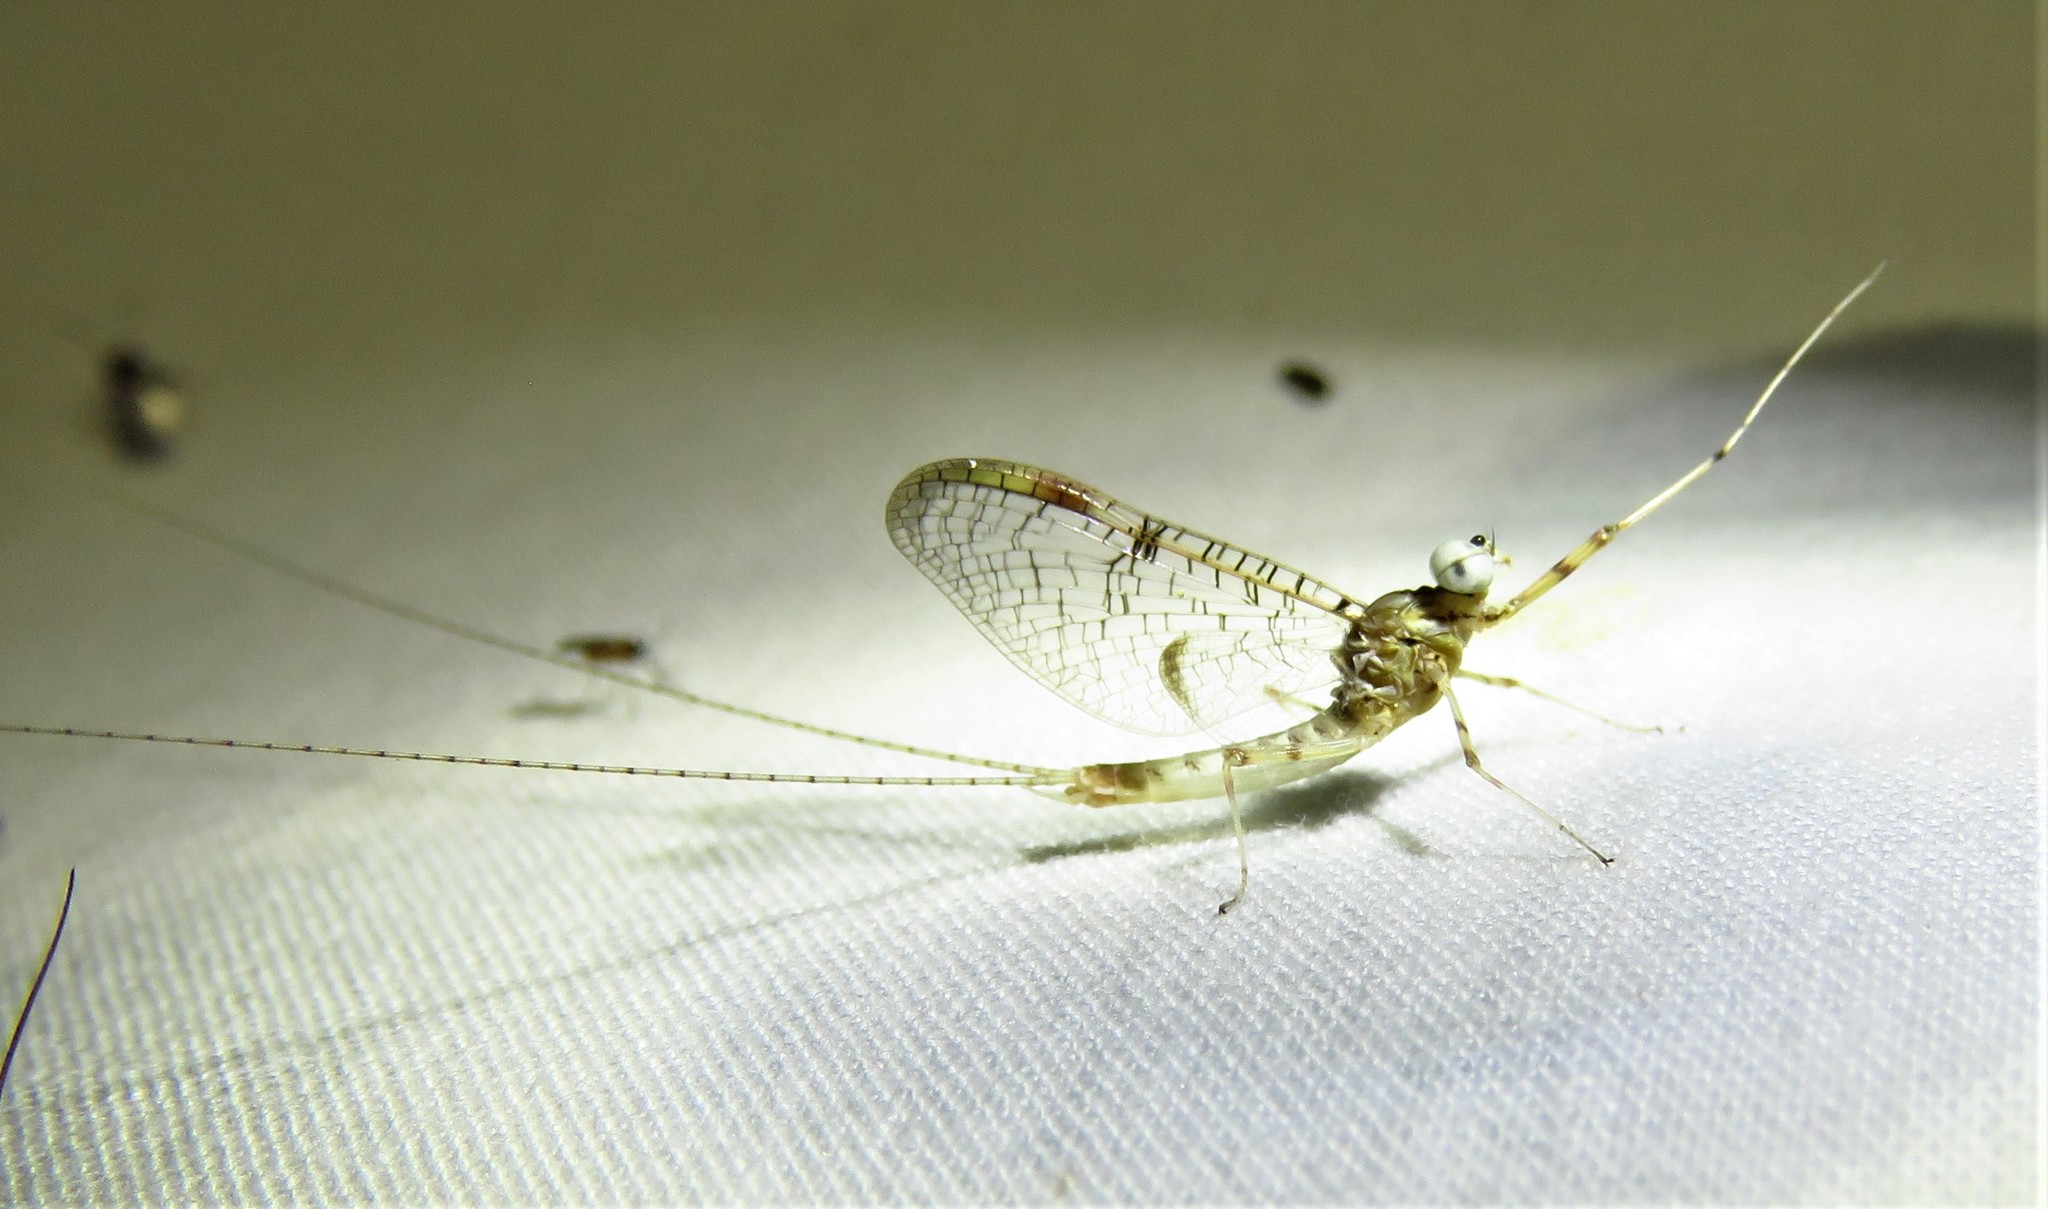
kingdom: Animalia
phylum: Arthropoda
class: Insecta
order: Ephemeroptera
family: Heptageniidae
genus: Stenonema
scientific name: Stenonema femoratum
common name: Dark cahill
